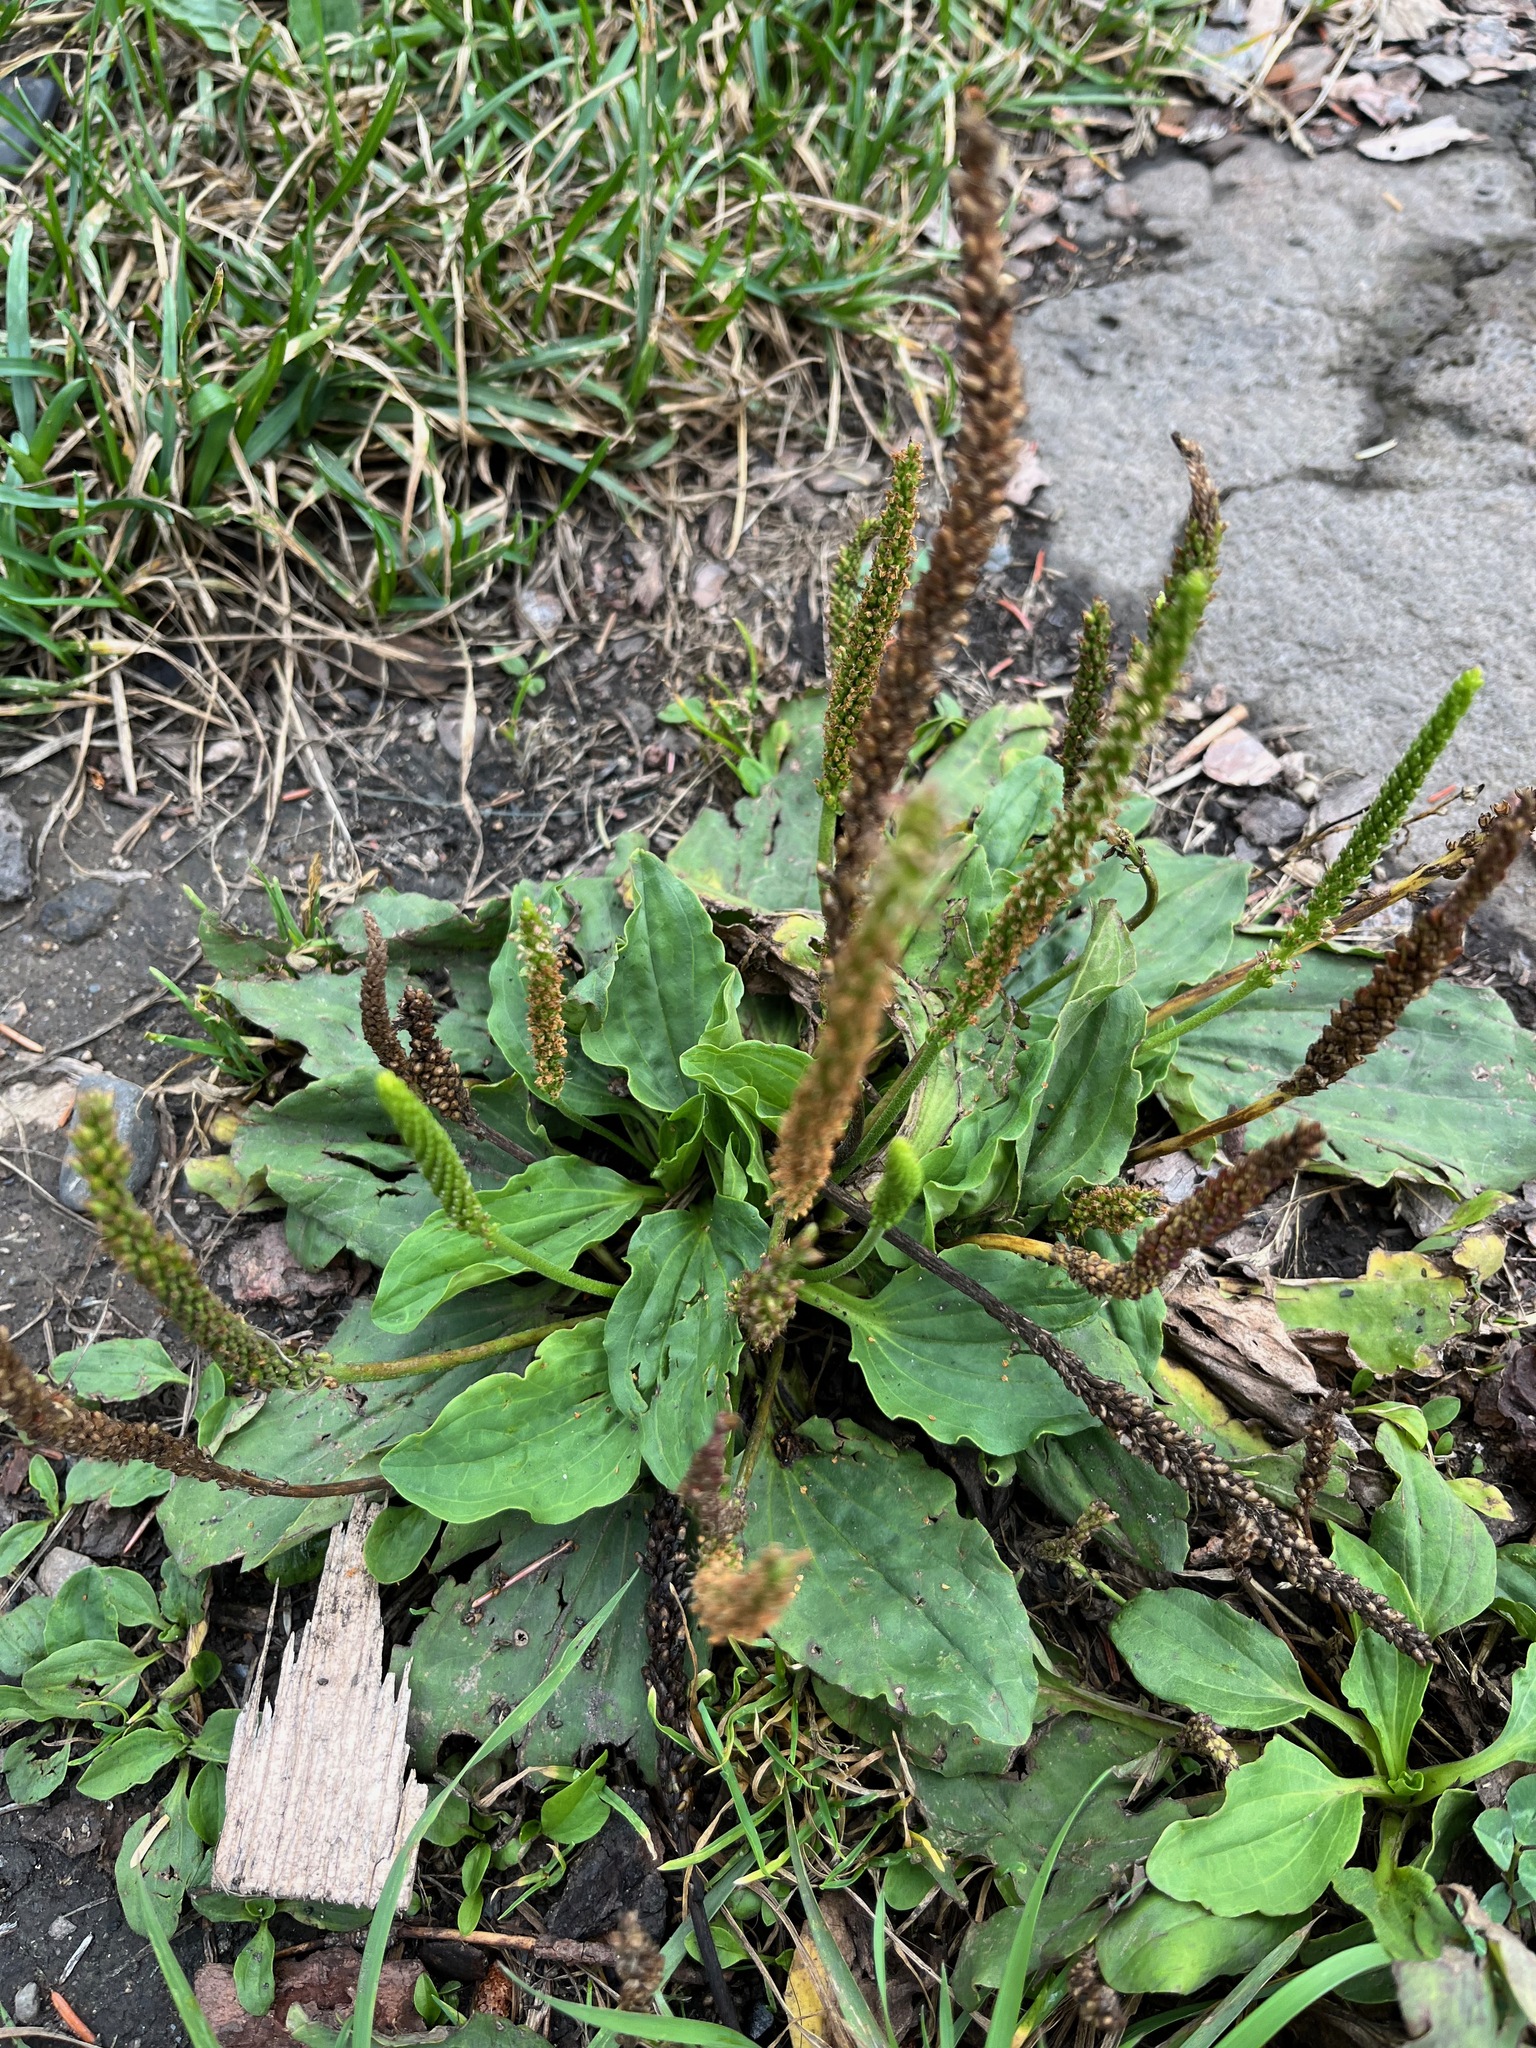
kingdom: Plantae
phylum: Tracheophyta
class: Magnoliopsida
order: Lamiales
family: Plantaginaceae
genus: Plantago
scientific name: Plantago major
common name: Common plantain
